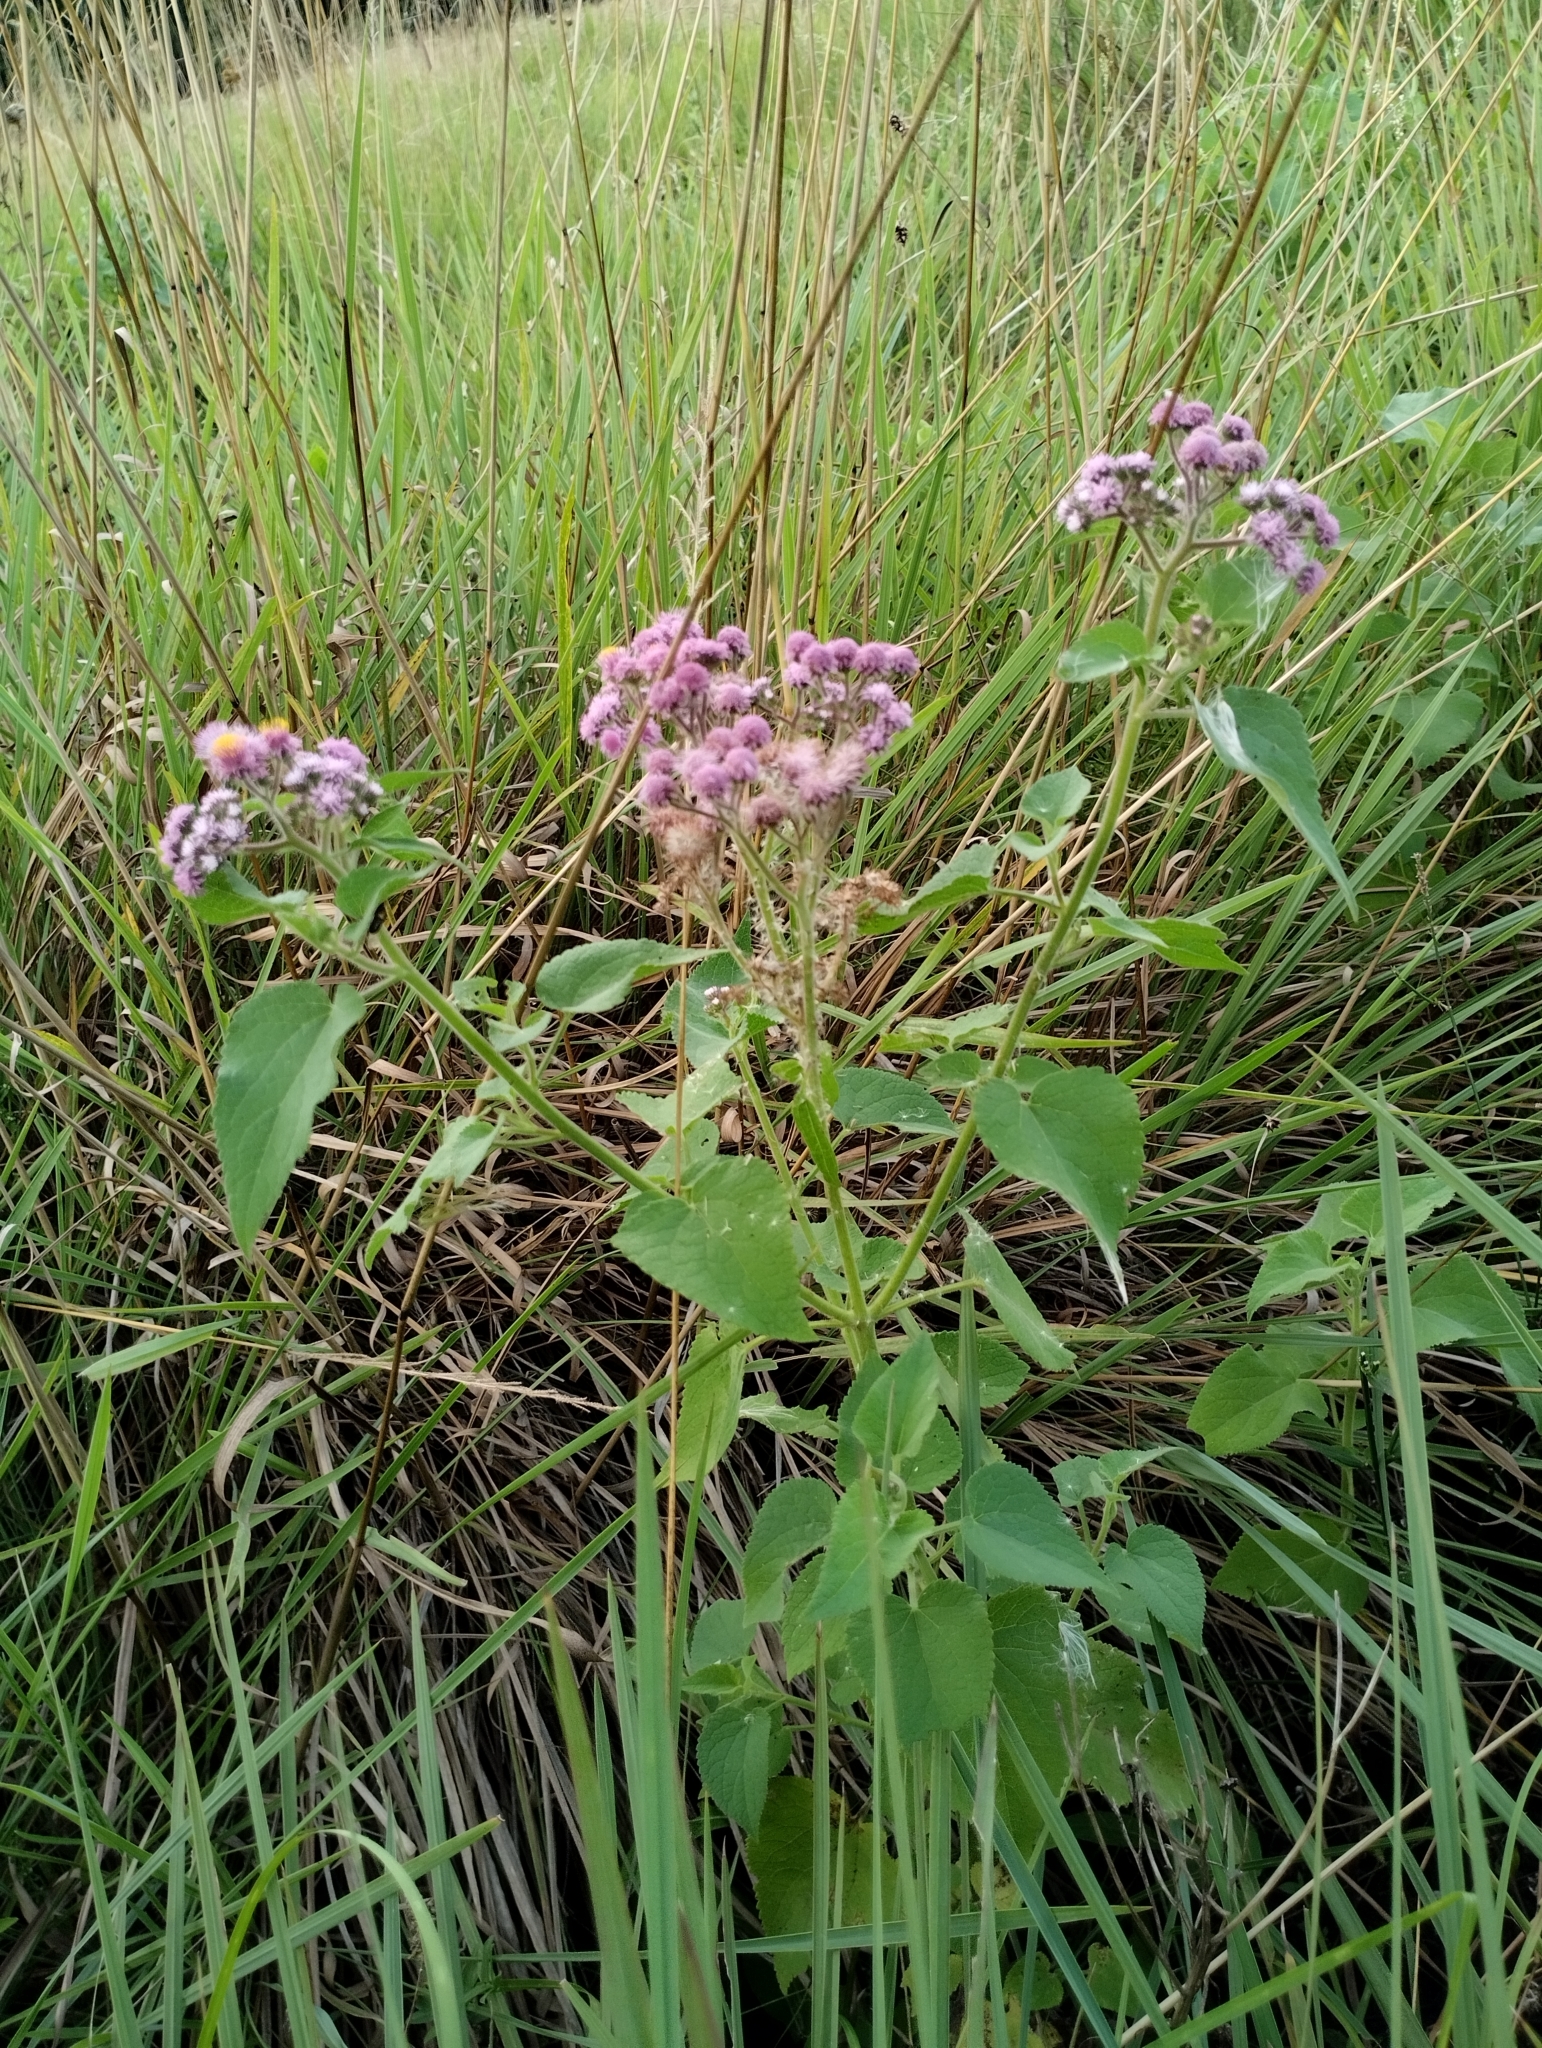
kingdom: Plantae
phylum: Tracheophyta
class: Magnoliopsida
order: Asterales
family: Asteraceae
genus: Urolepis
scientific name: Urolepis hecatantha
